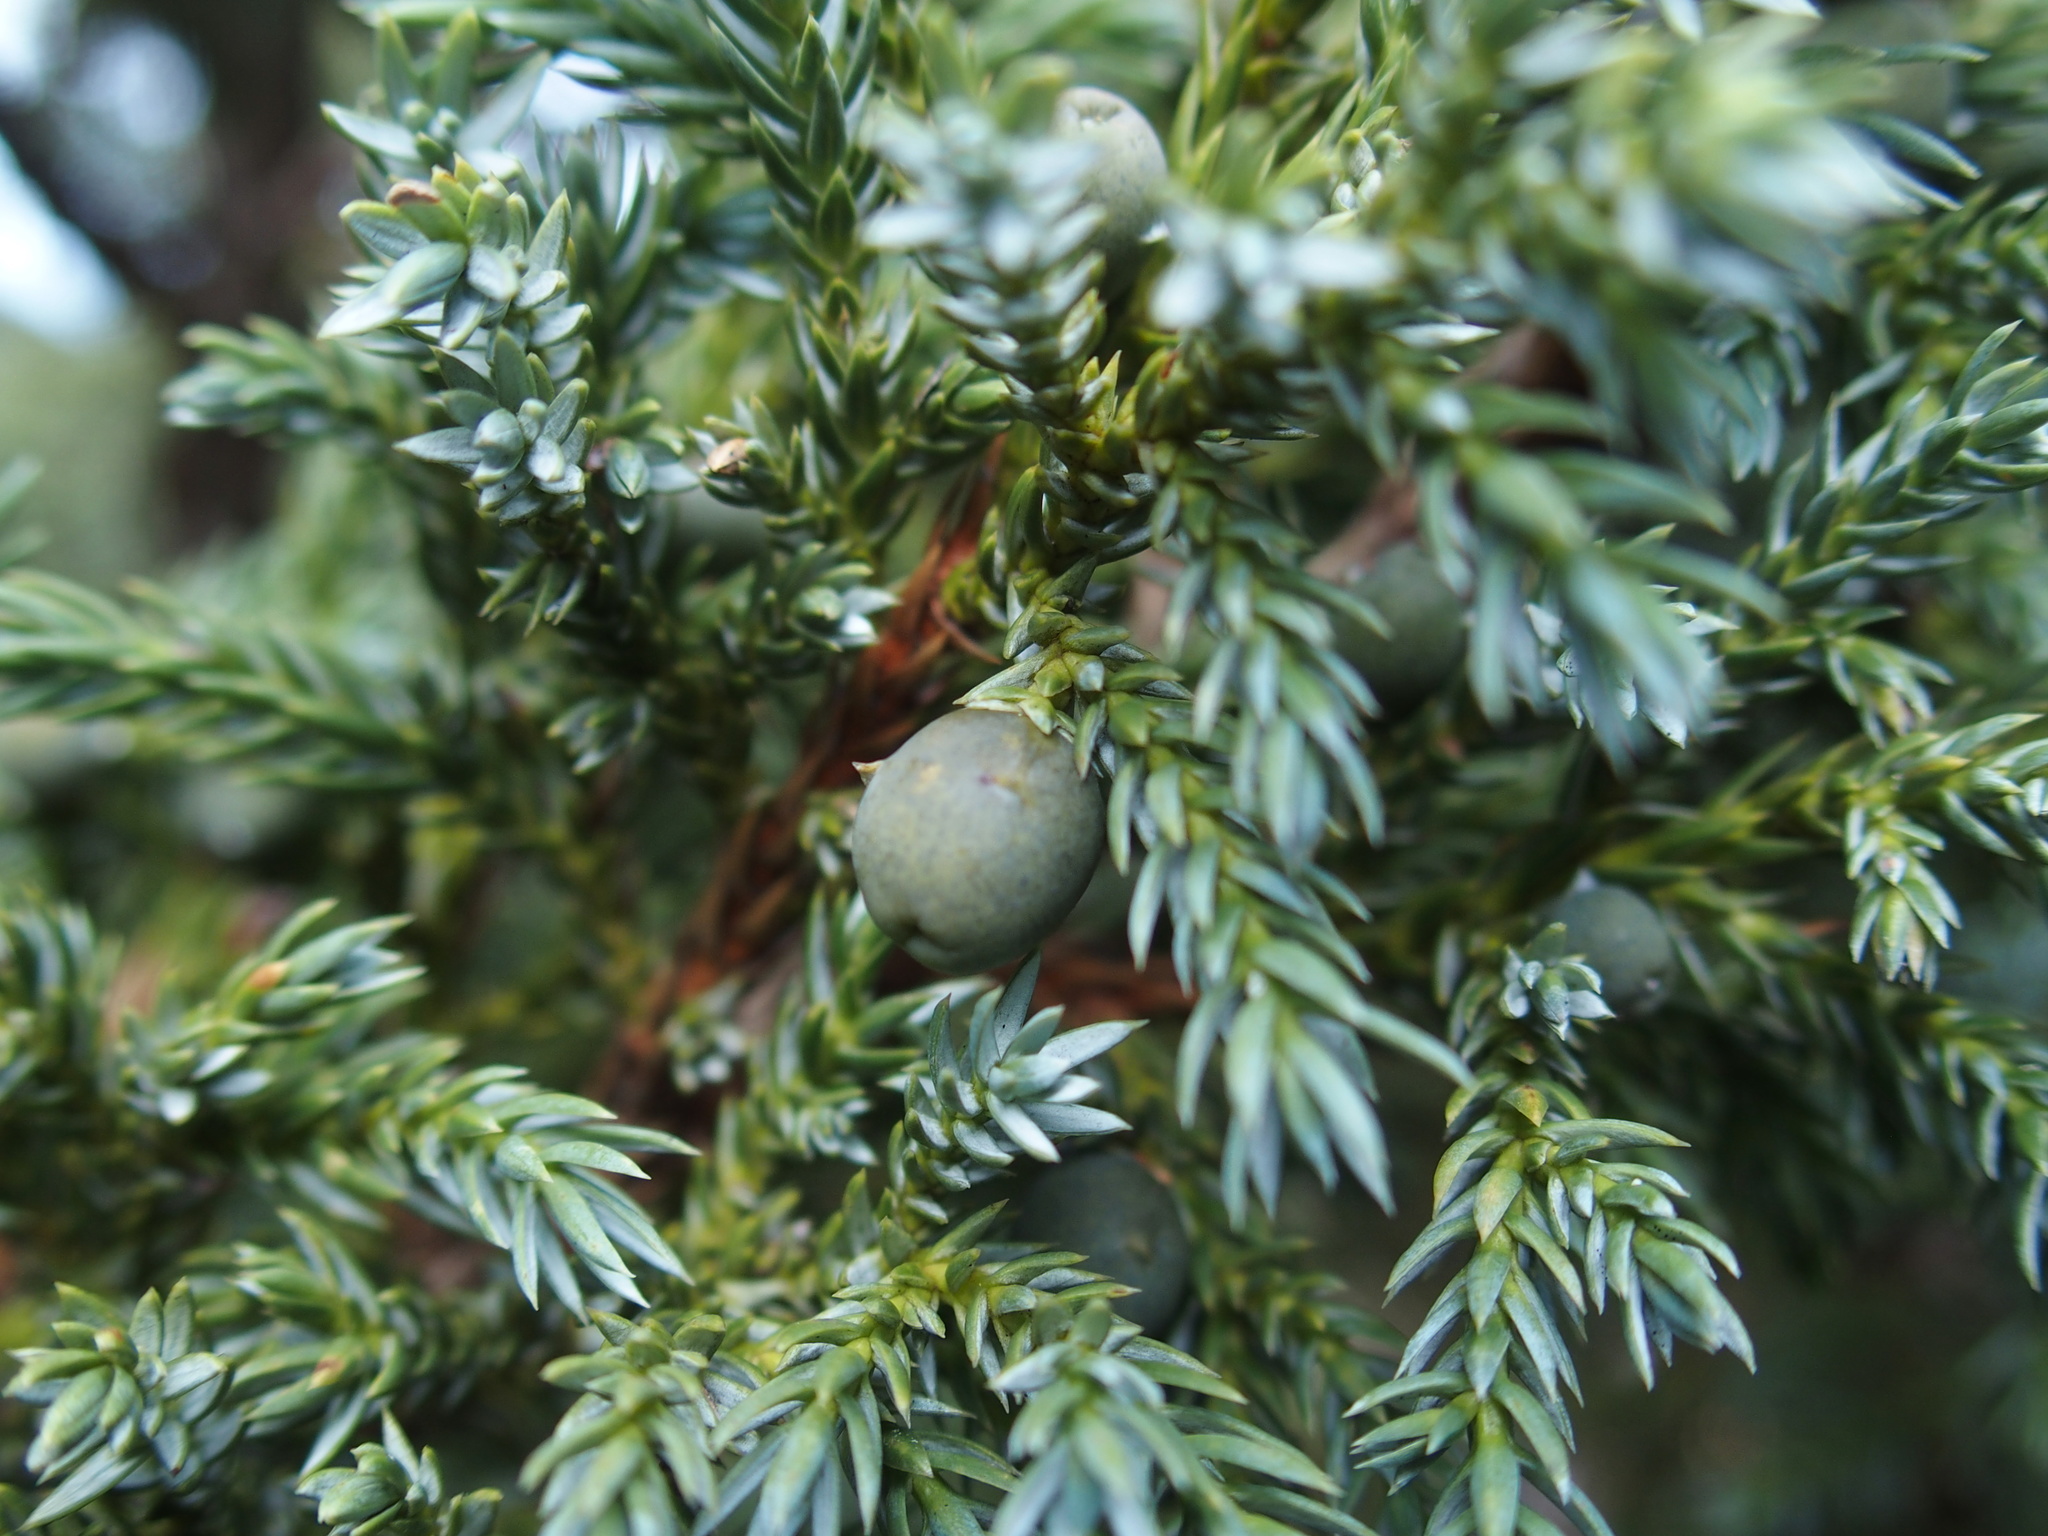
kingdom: Plantae
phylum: Tracheophyta
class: Pinopsida
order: Pinales
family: Cupressaceae
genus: Juniperus
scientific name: Juniperus squamata
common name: Flaky juniper
